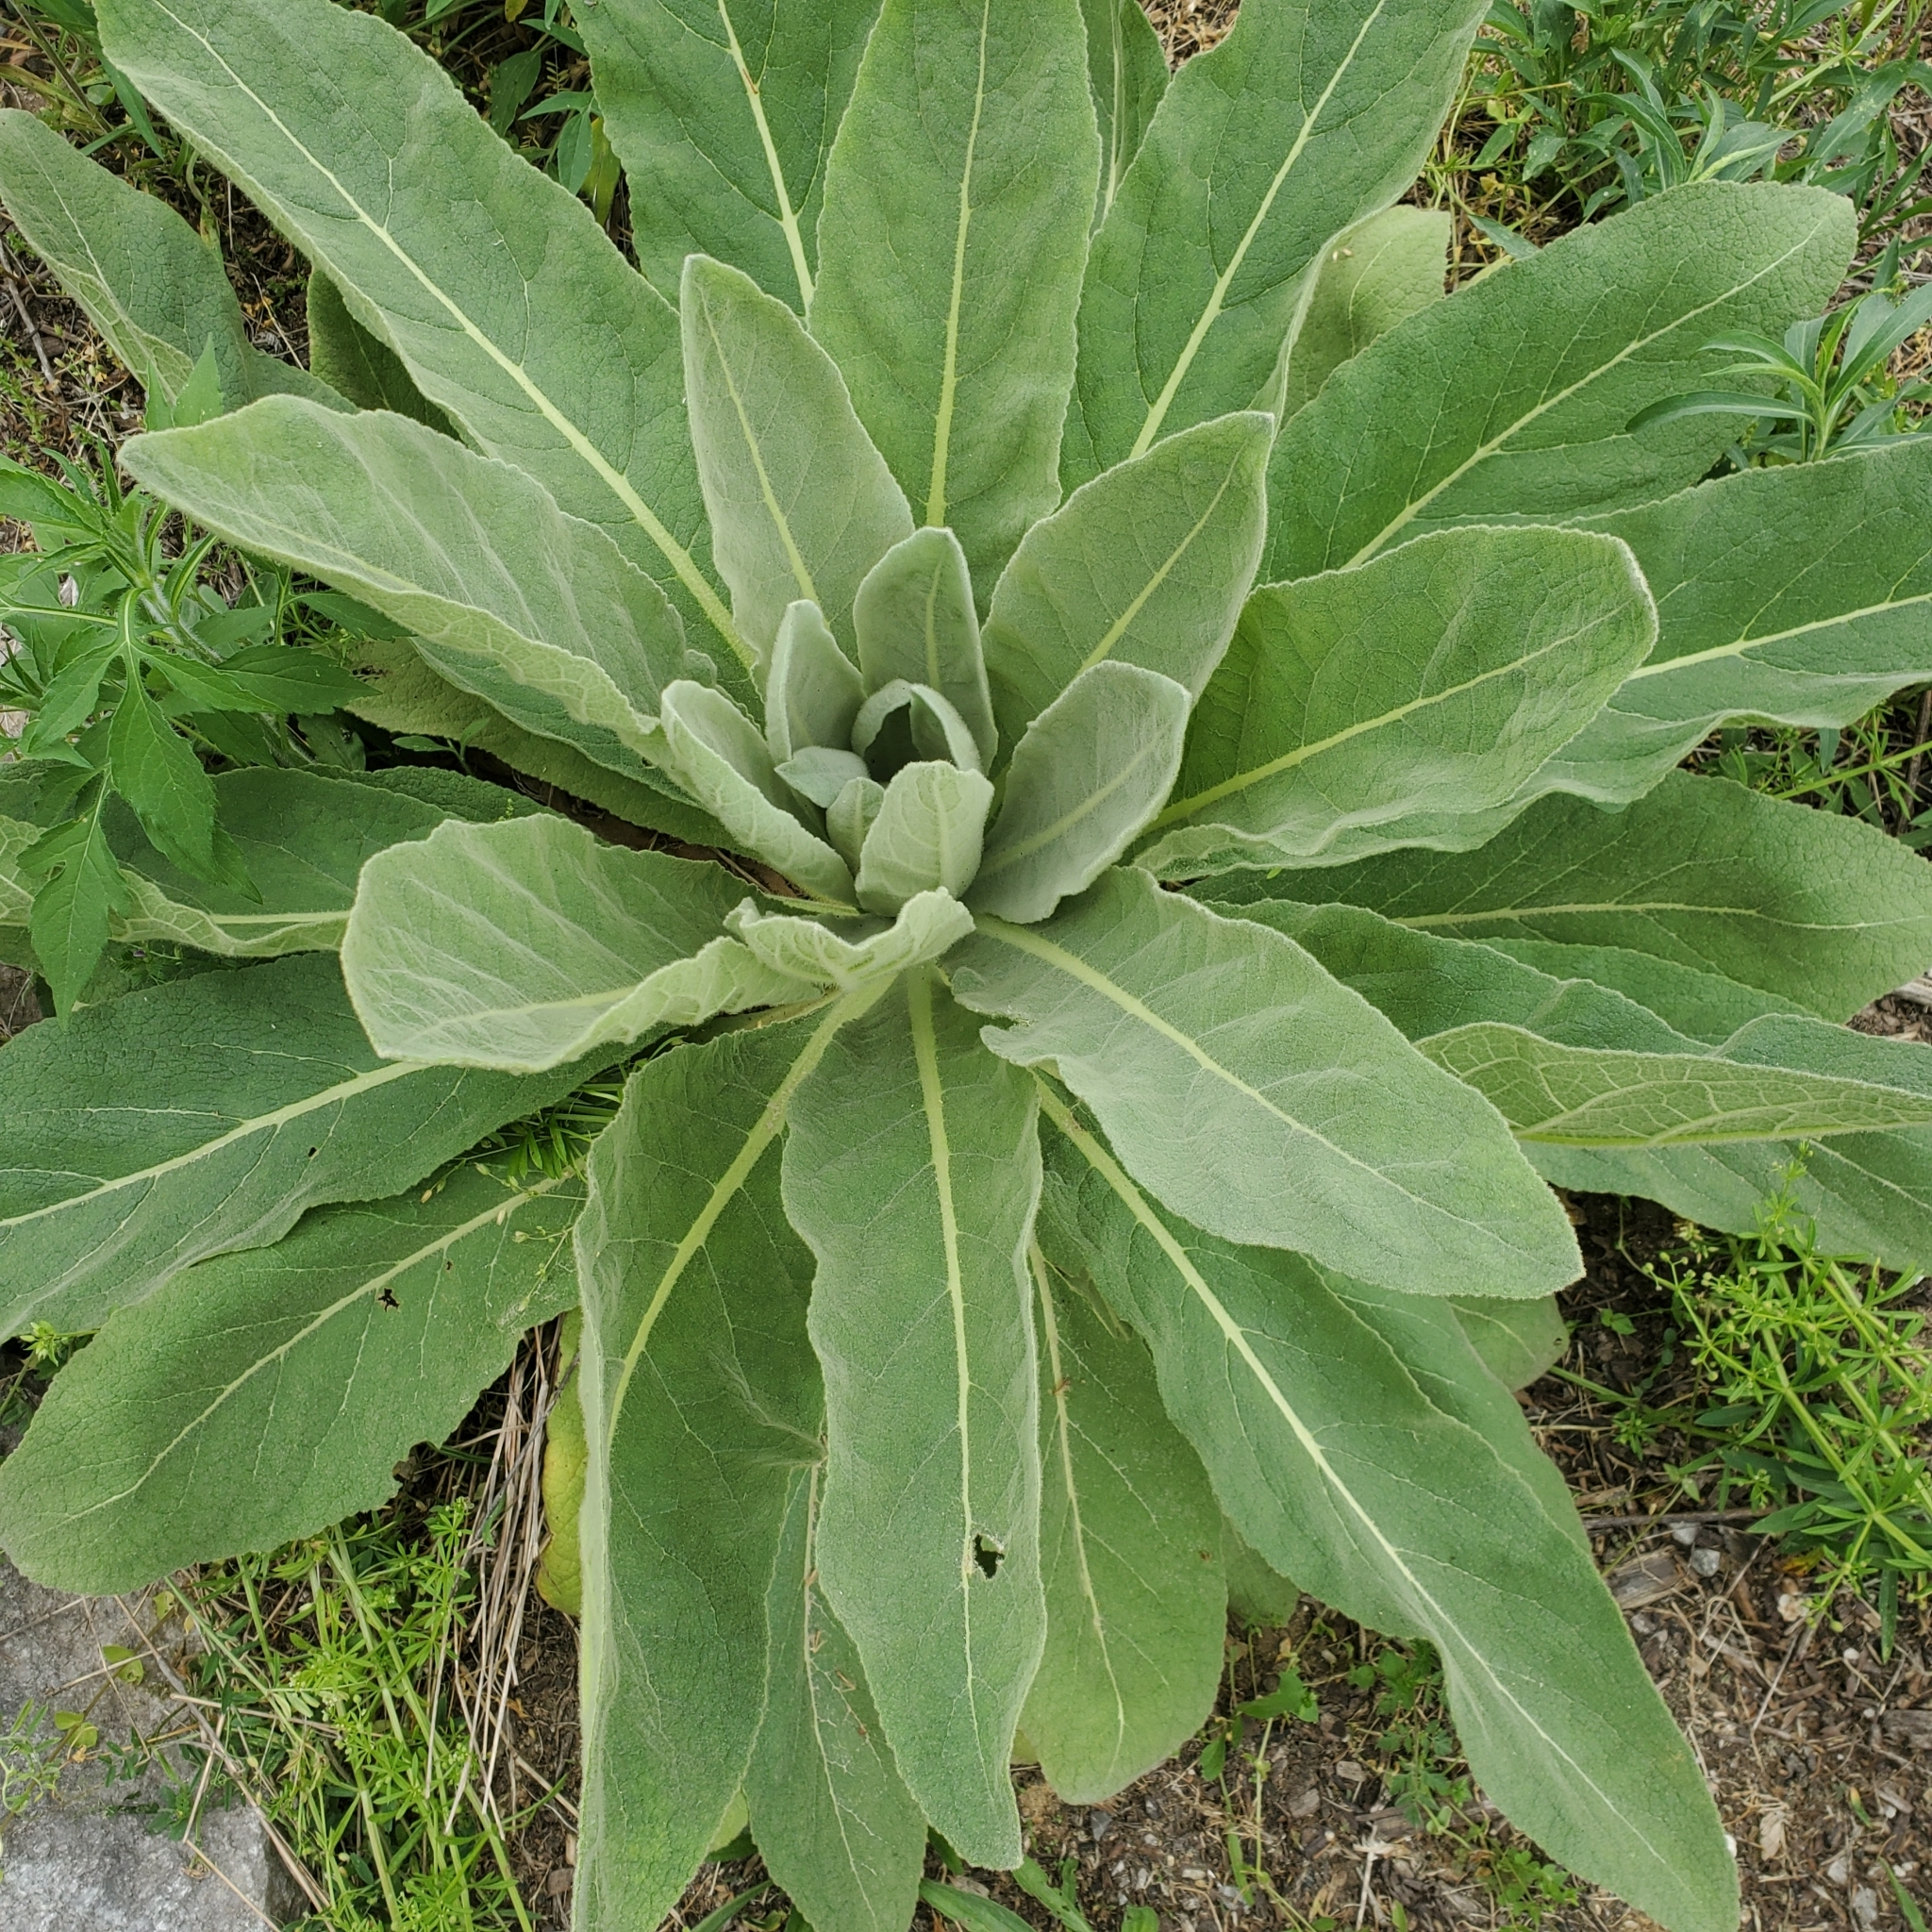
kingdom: Plantae
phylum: Tracheophyta
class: Magnoliopsida
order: Lamiales
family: Scrophulariaceae
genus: Verbascum
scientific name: Verbascum thapsus
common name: Common mullein
